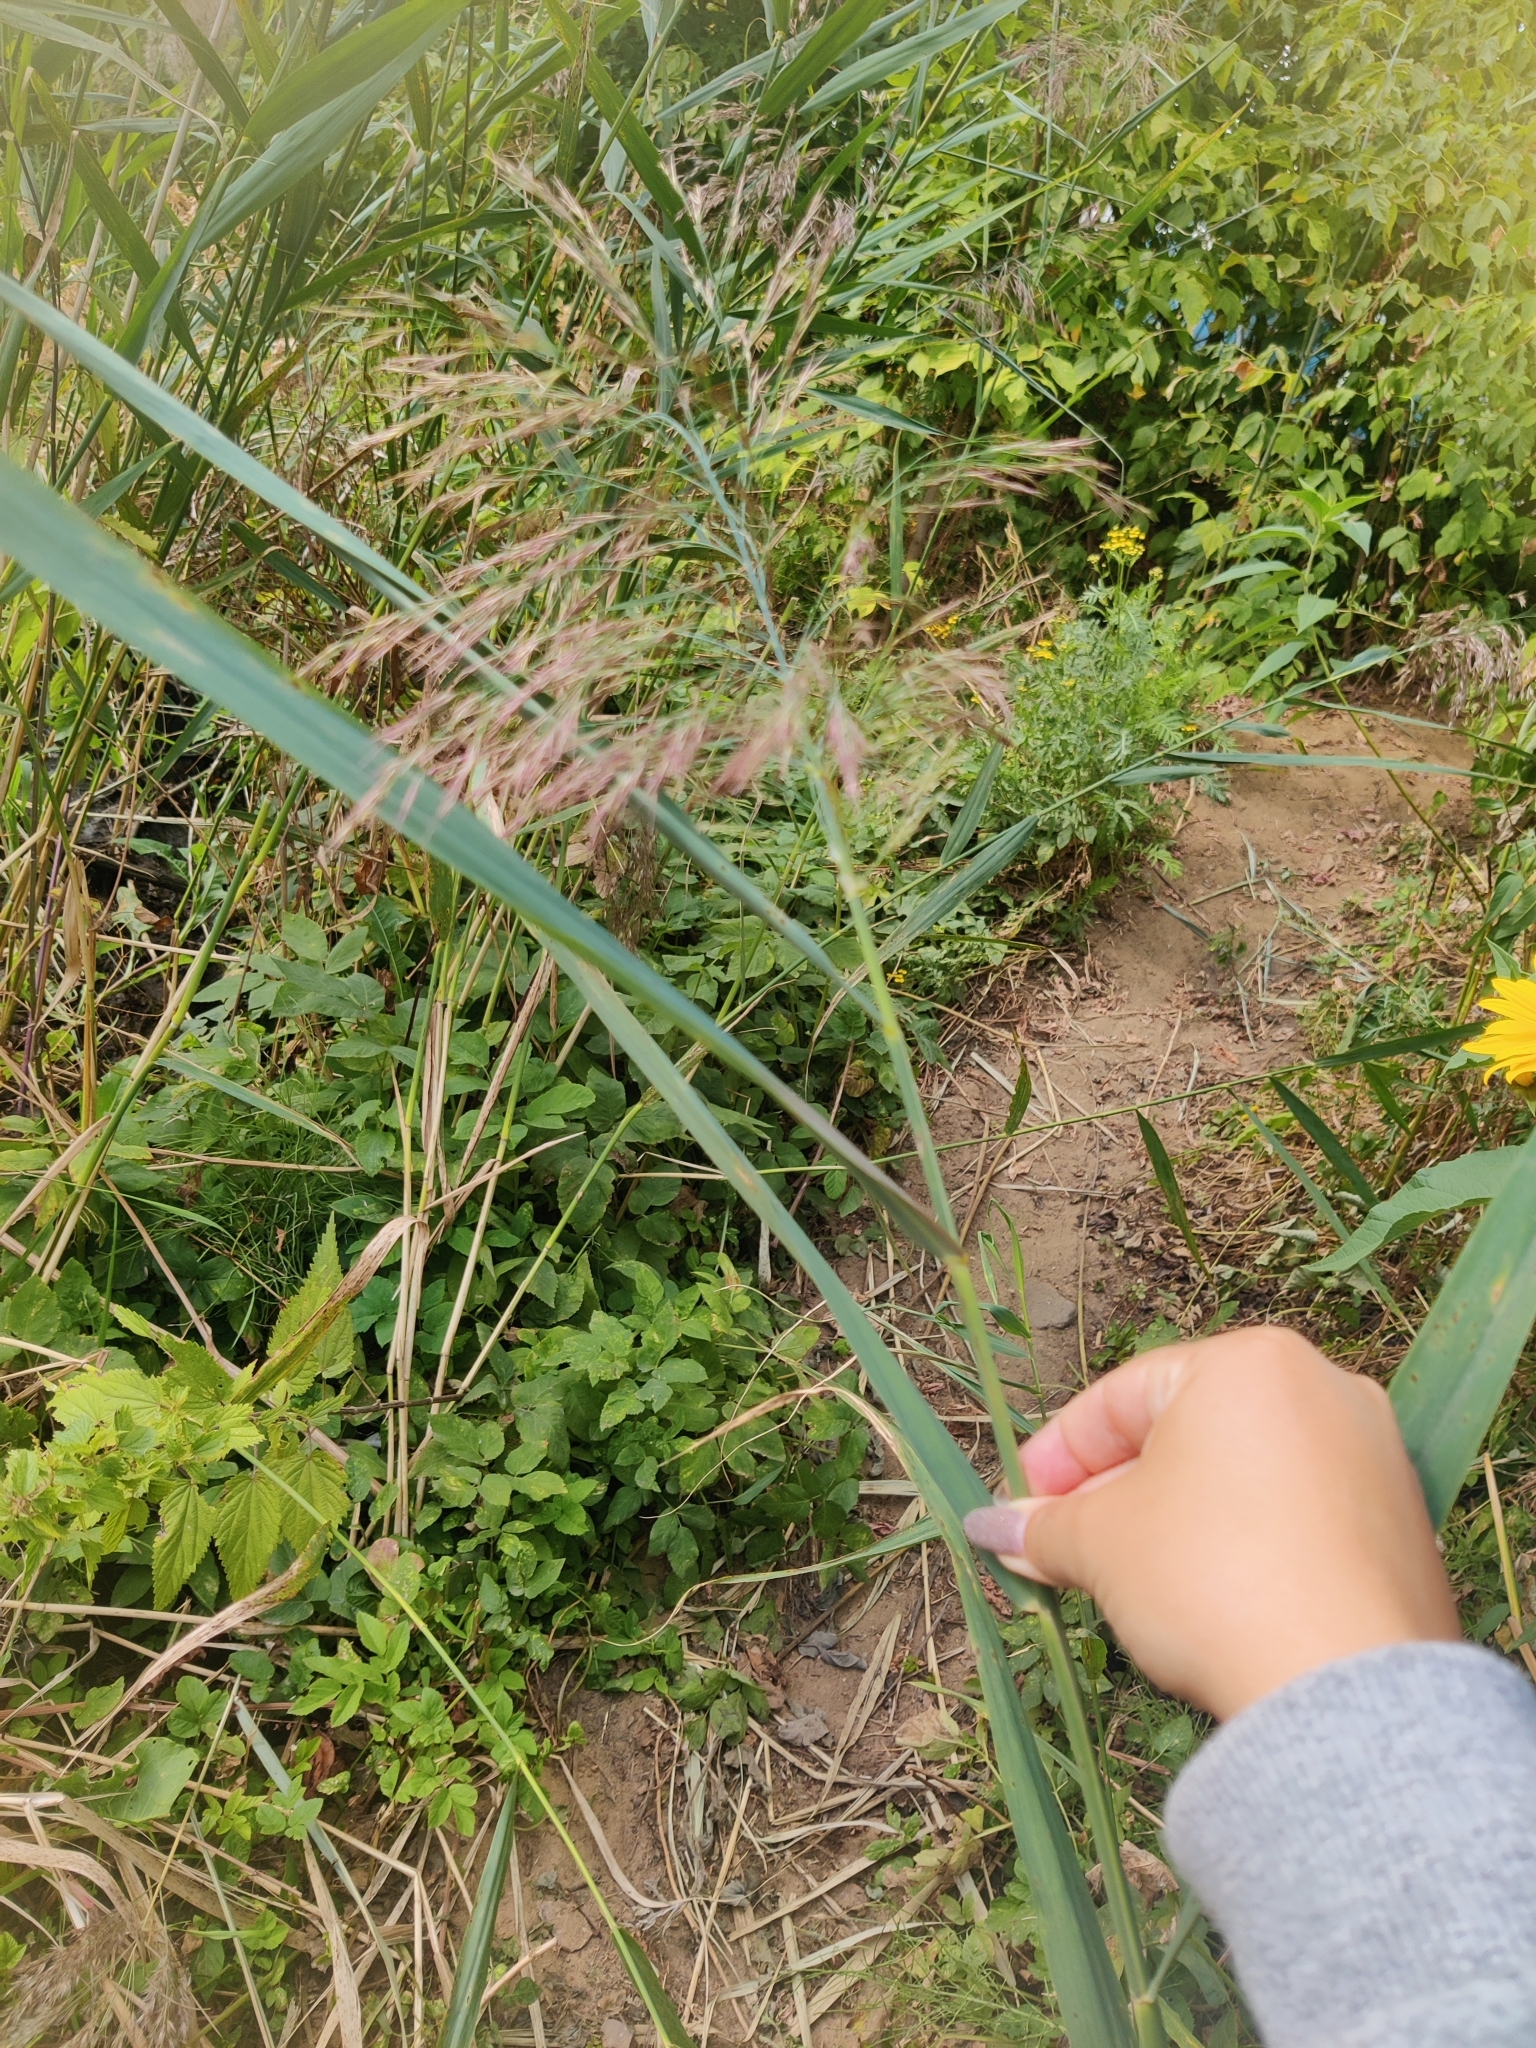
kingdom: Plantae
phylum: Tracheophyta
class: Liliopsida
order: Poales
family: Poaceae
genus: Phragmites
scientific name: Phragmites australis
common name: Common reed
